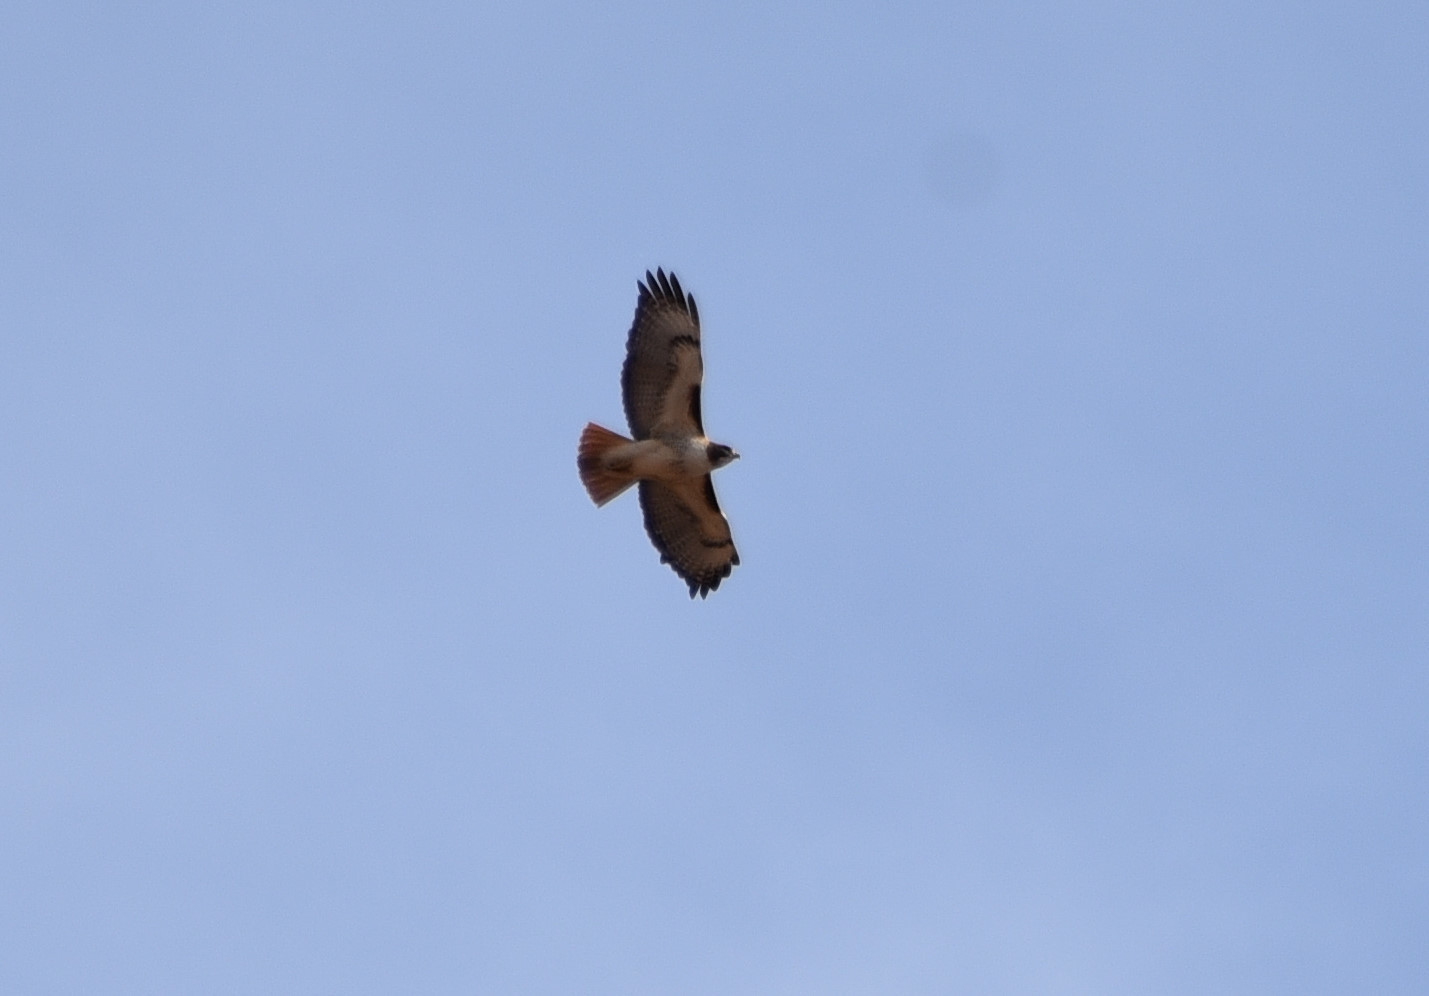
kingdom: Animalia
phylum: Chordata
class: Aves
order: Accipitriformes
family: Accipitridae
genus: Buteo
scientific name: Buteo jamaicensis
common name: Red-tailed hawk
